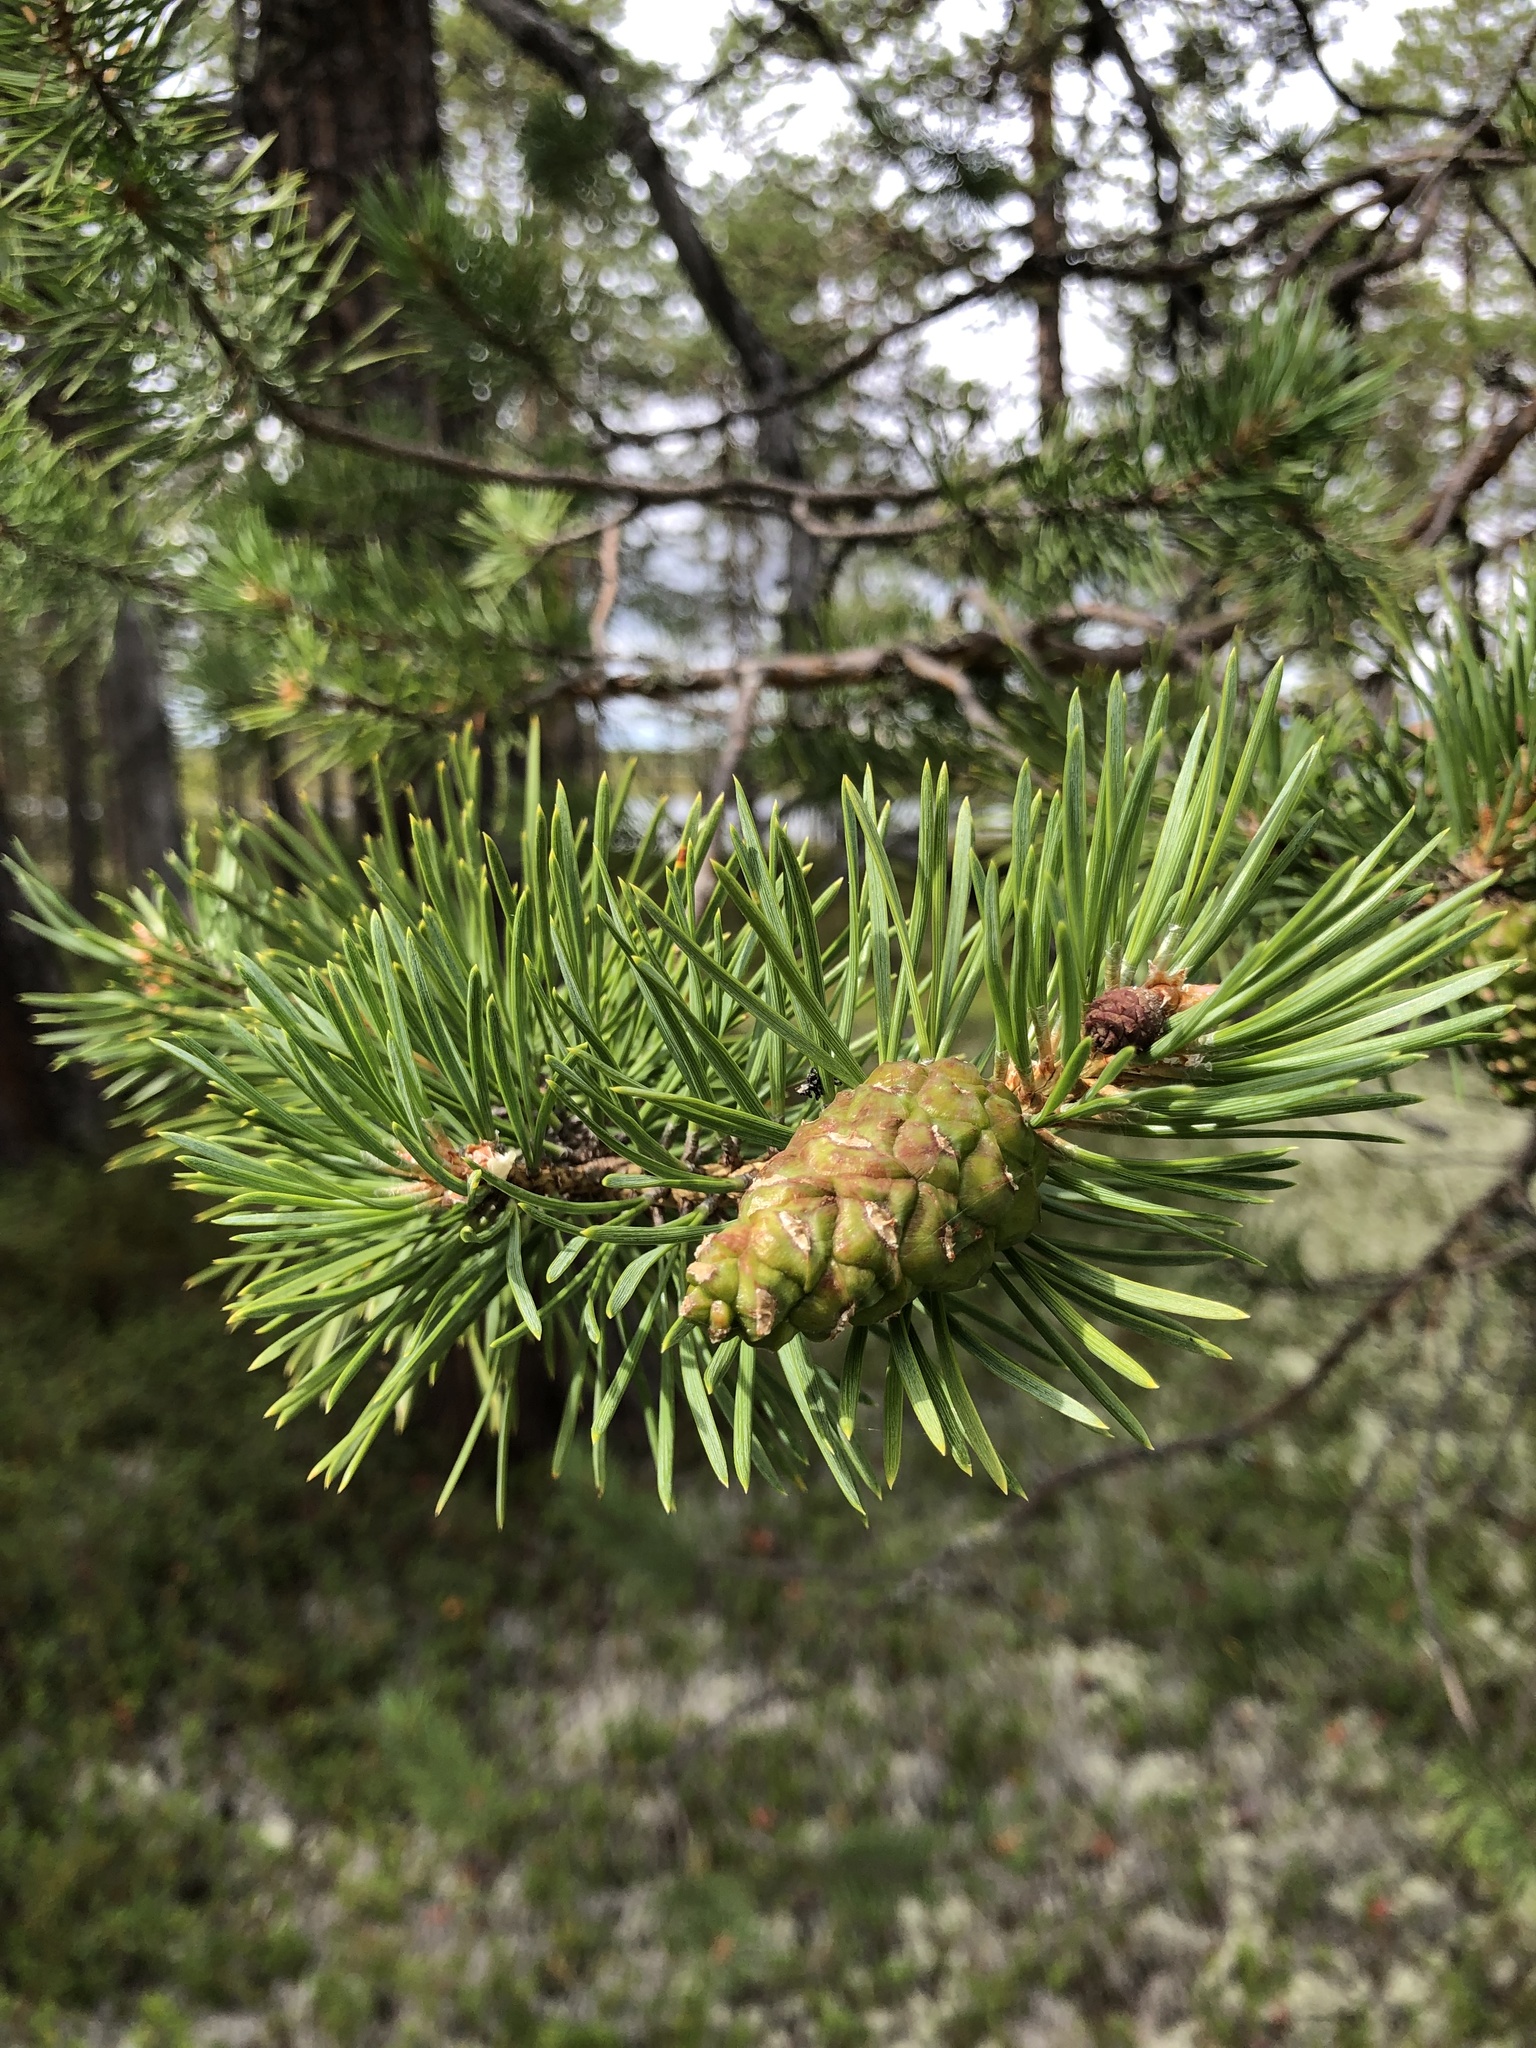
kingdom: Plantae
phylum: Tracheophyta
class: Pinopsida
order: Pinales
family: Pinaceae
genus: Pinus
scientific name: Pinus sylvestris
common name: Scots pine
